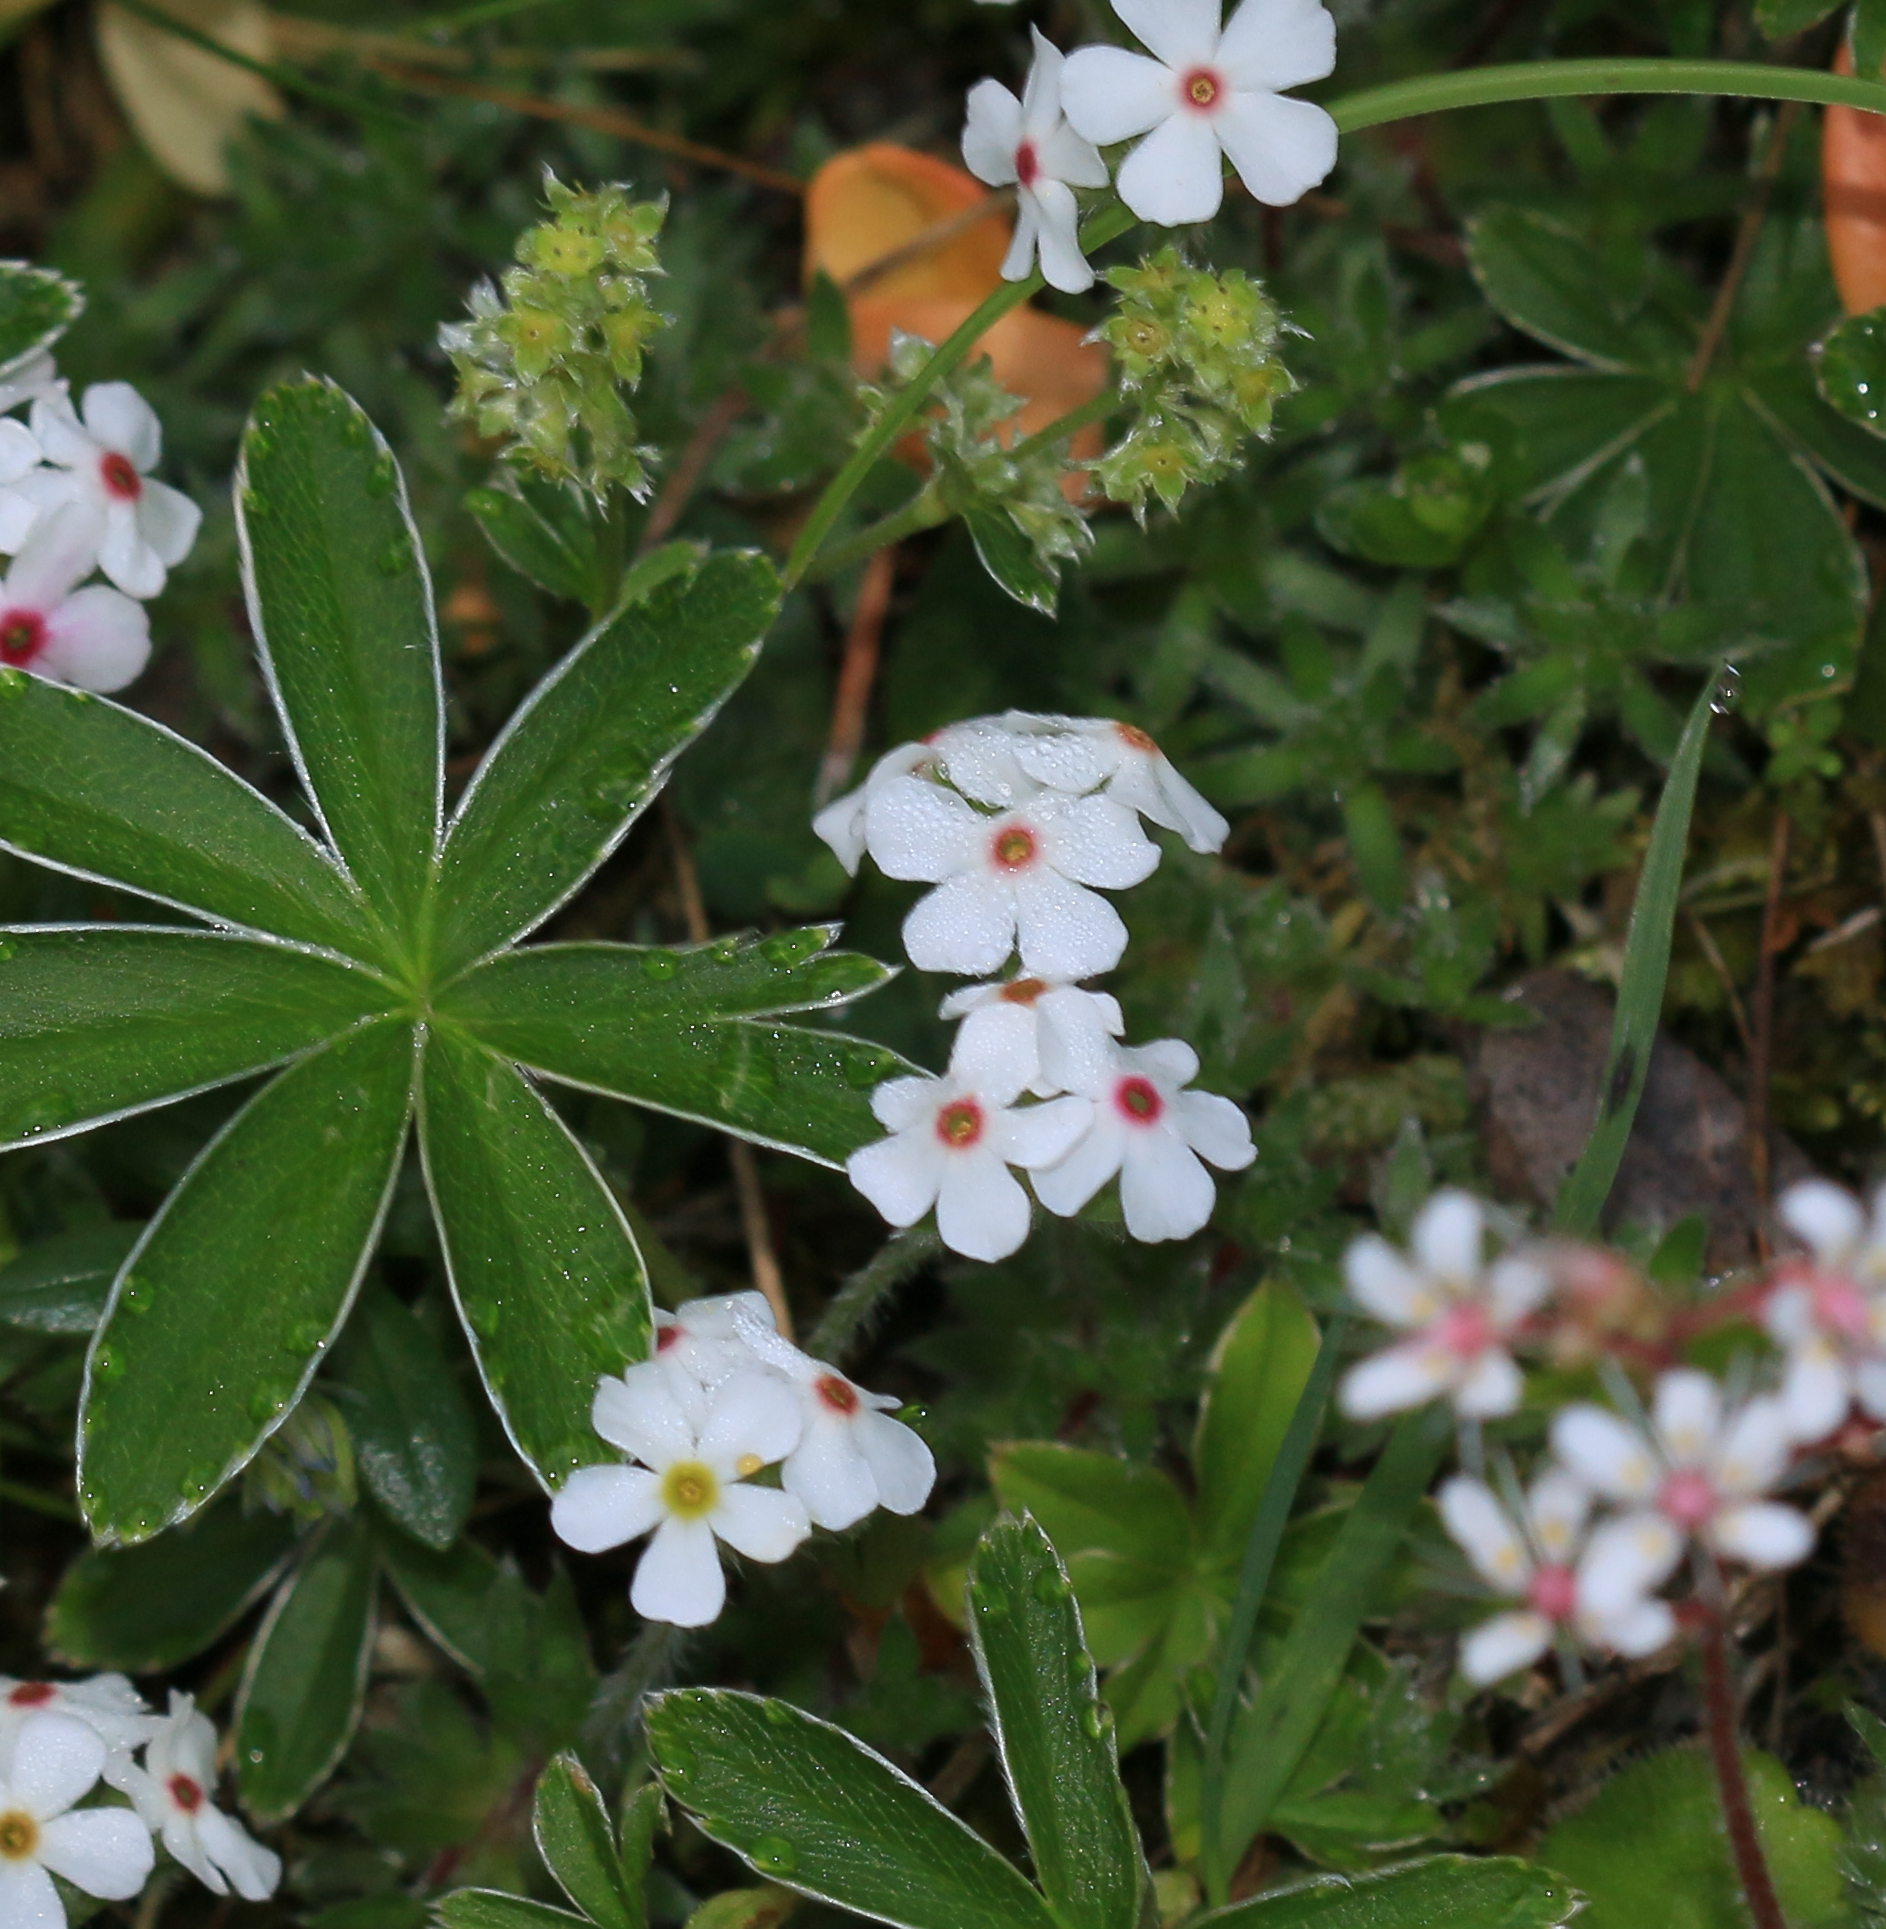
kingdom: Plantae
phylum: Tracheophyta
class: Magnoliopsida
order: Ericales
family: Primulaceae
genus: Androsace
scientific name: Androsace villosa
